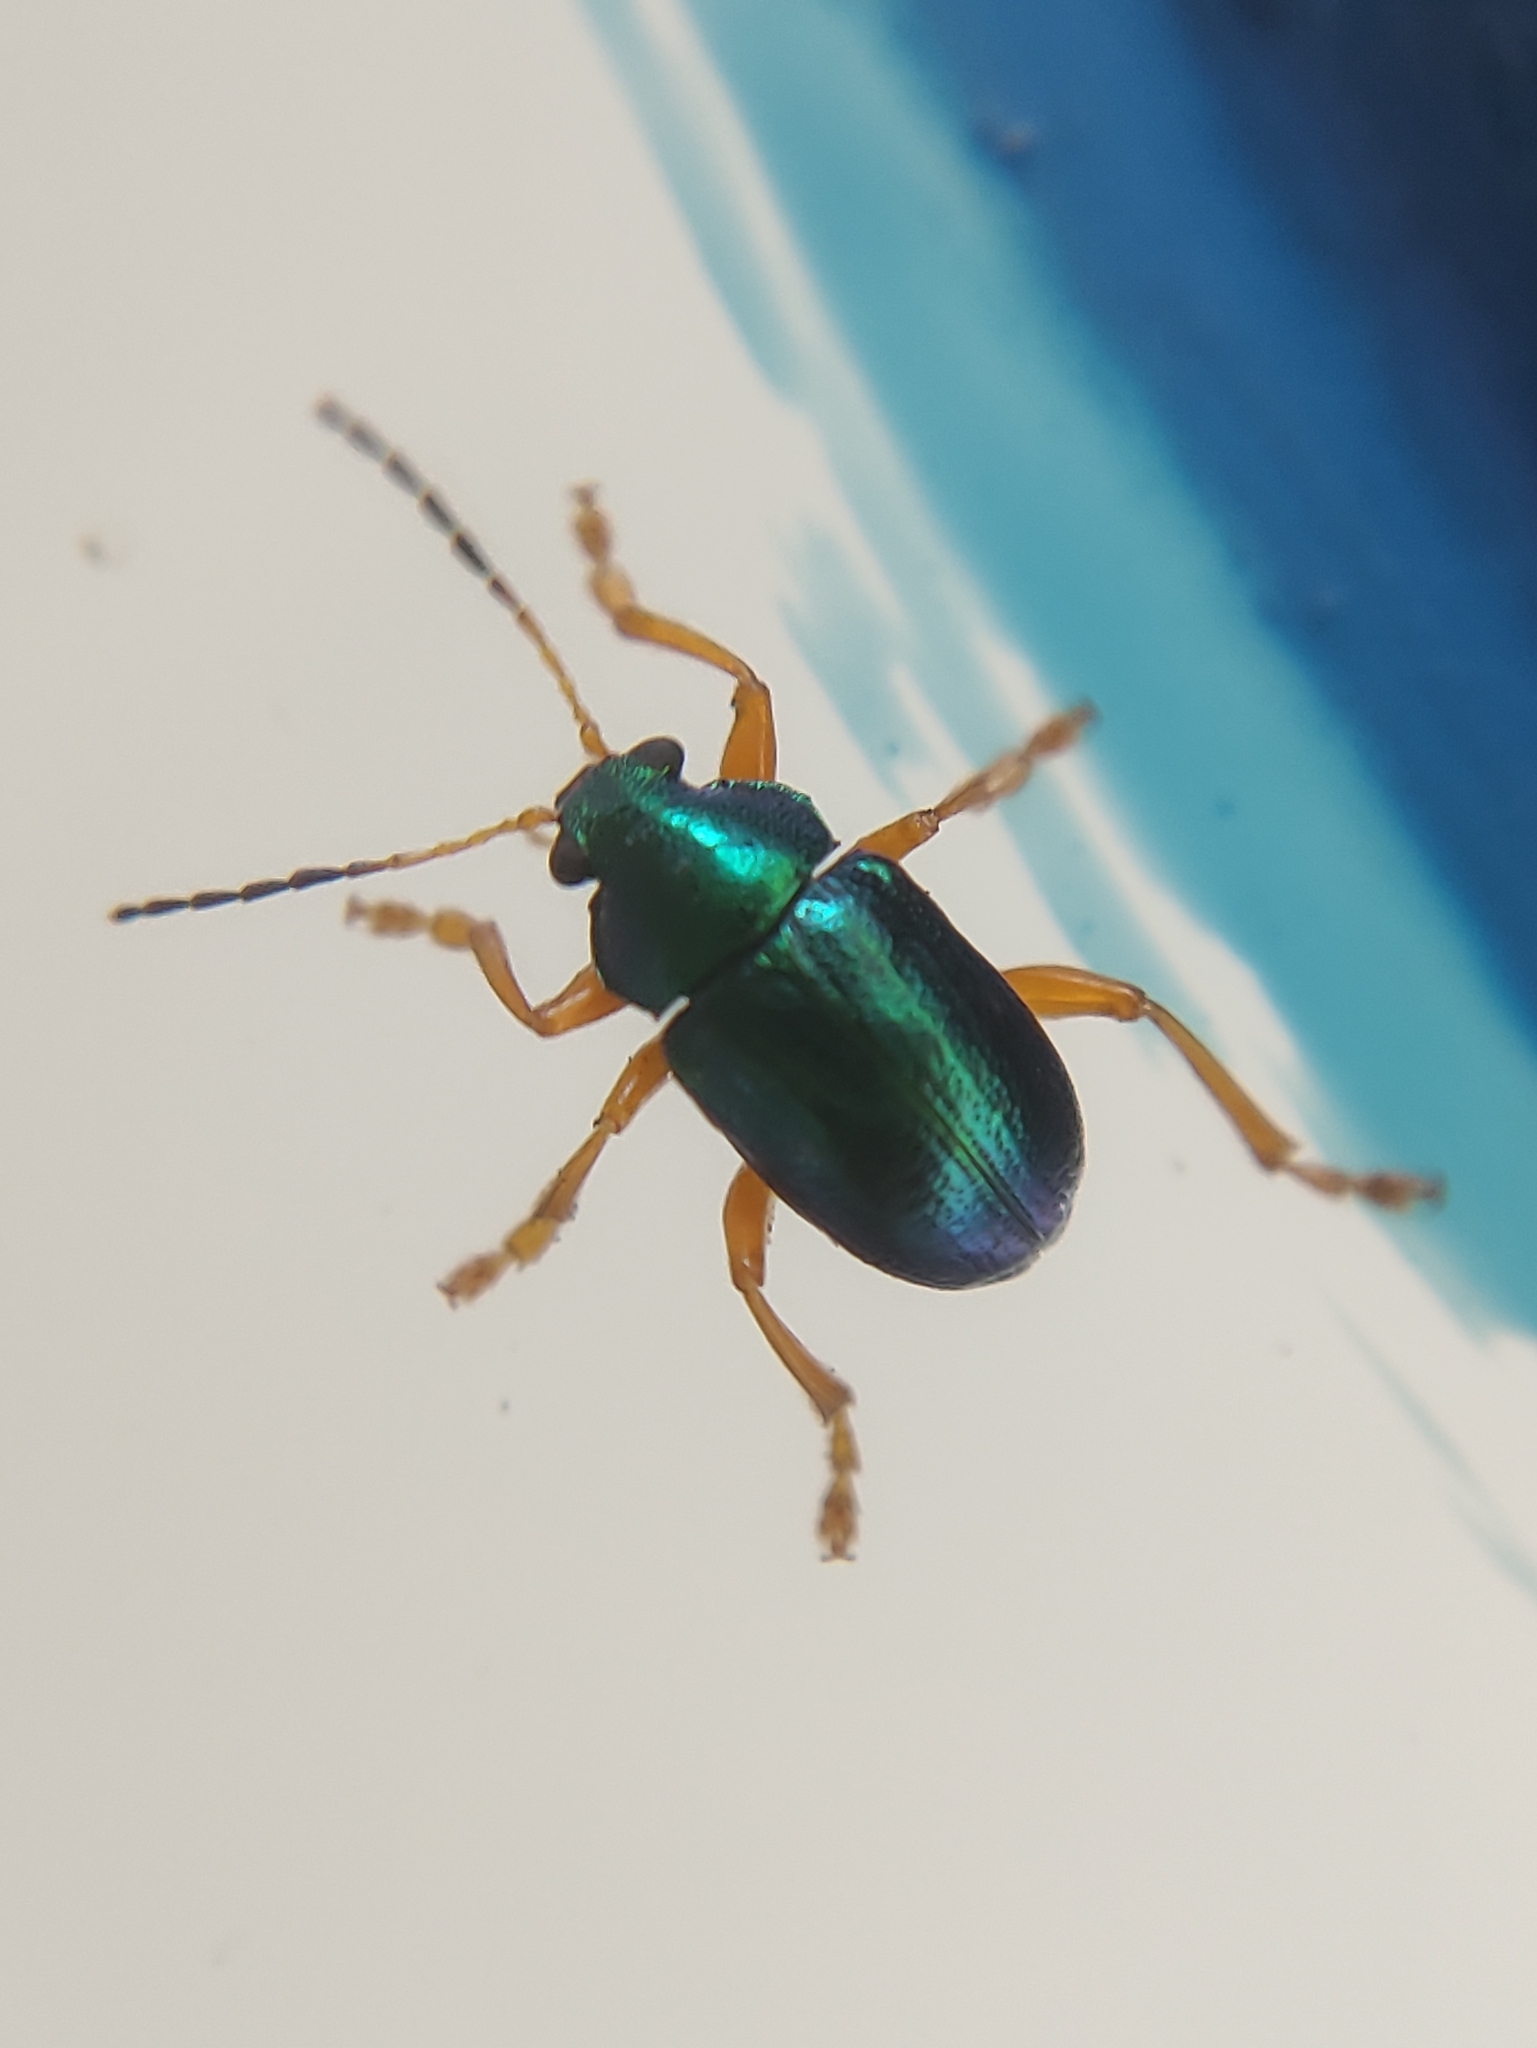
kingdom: Animalia
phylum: Arthropoda
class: Insecta
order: Coleoptera
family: Chrysomelidae
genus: Nodocolaspis
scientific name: Nodocolaspis
